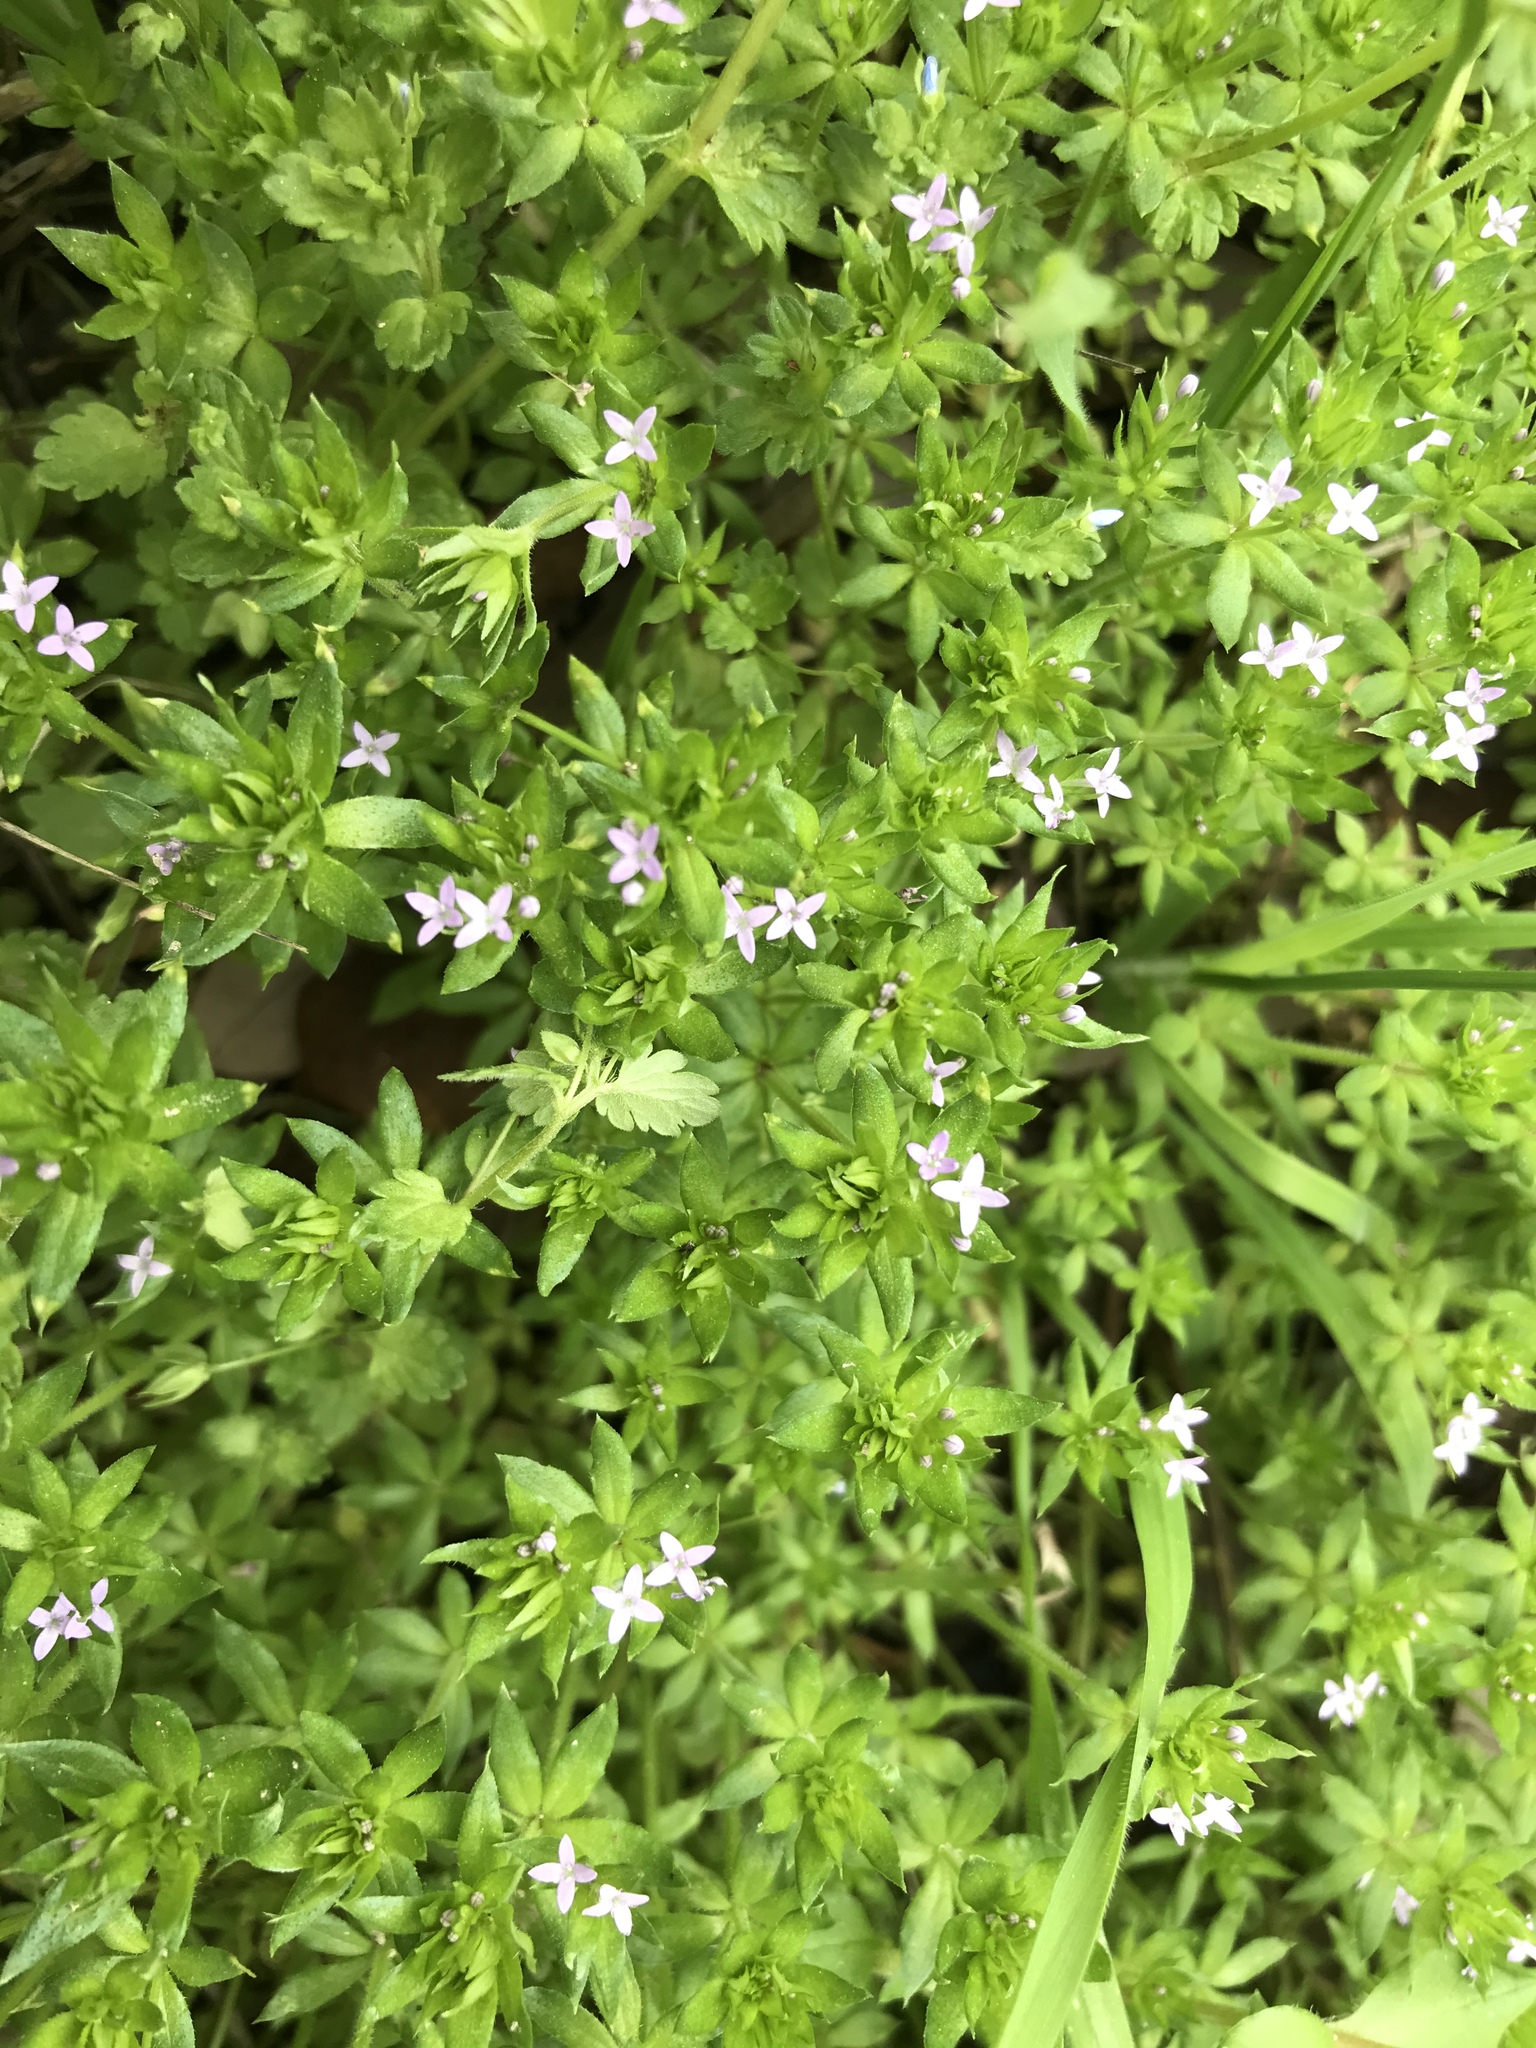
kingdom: Plantae
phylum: Tracheophyta
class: Magnoliopsida
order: Gentianales
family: Rubiaceae
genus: Sherardia
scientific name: Sherardia arvensis
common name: Field madder
